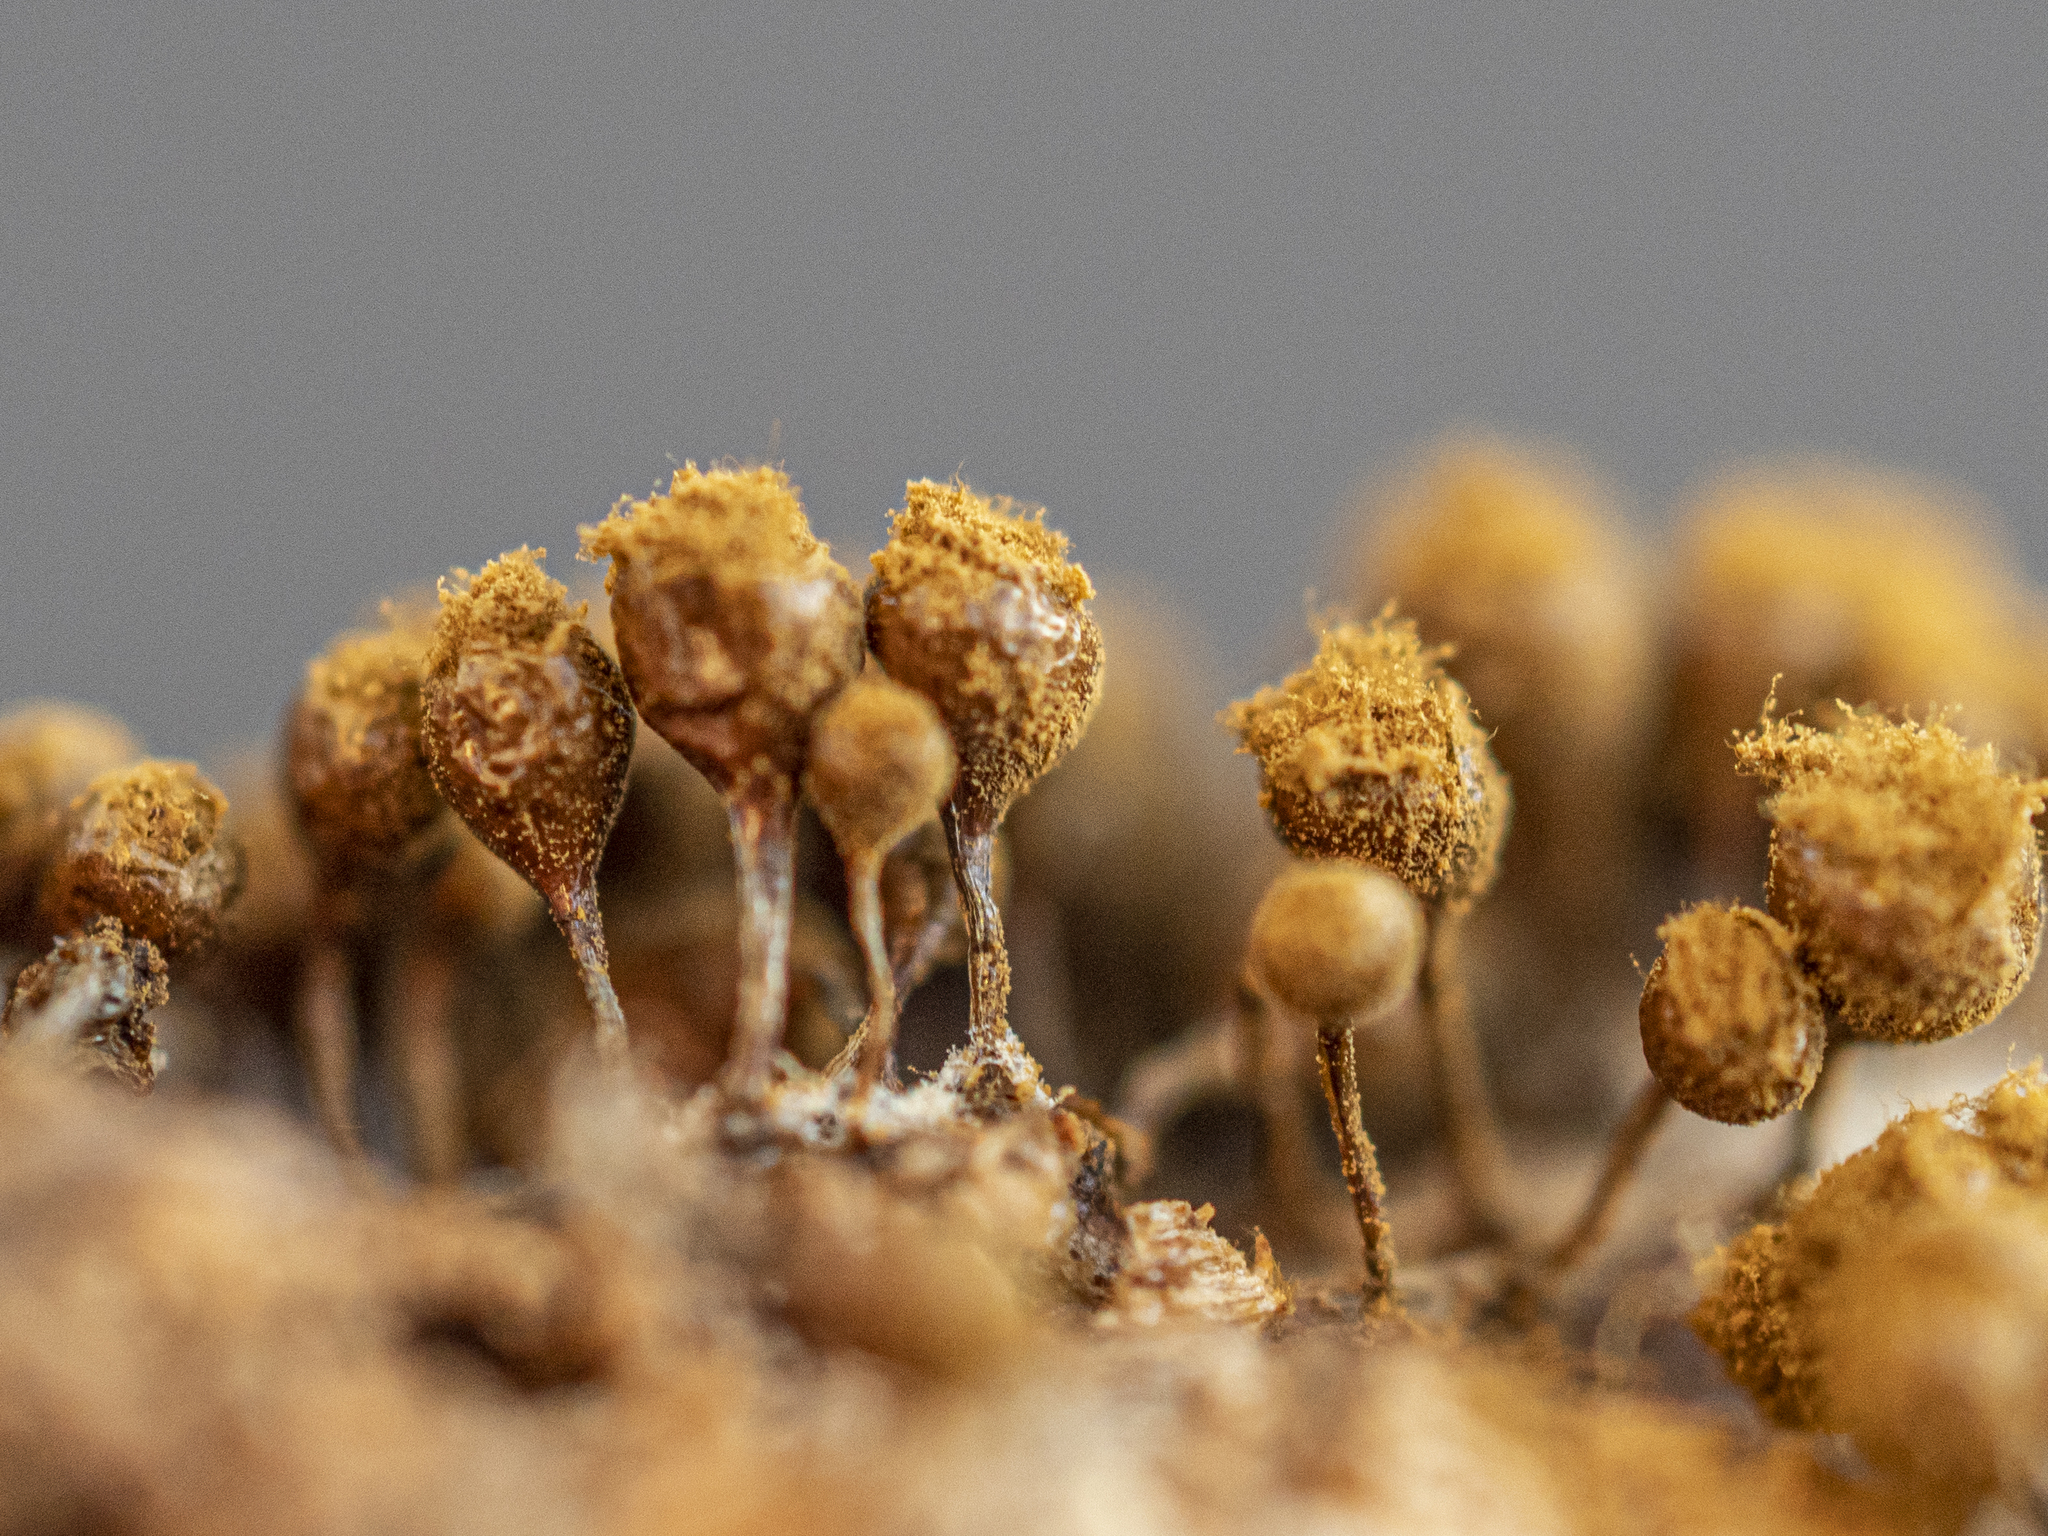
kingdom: Protozoa
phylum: Mycetozoa
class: Myxomycetes
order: Trichiales
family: Arcyriaceae
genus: Hemitrichia
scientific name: Hemitrichia decipiens
